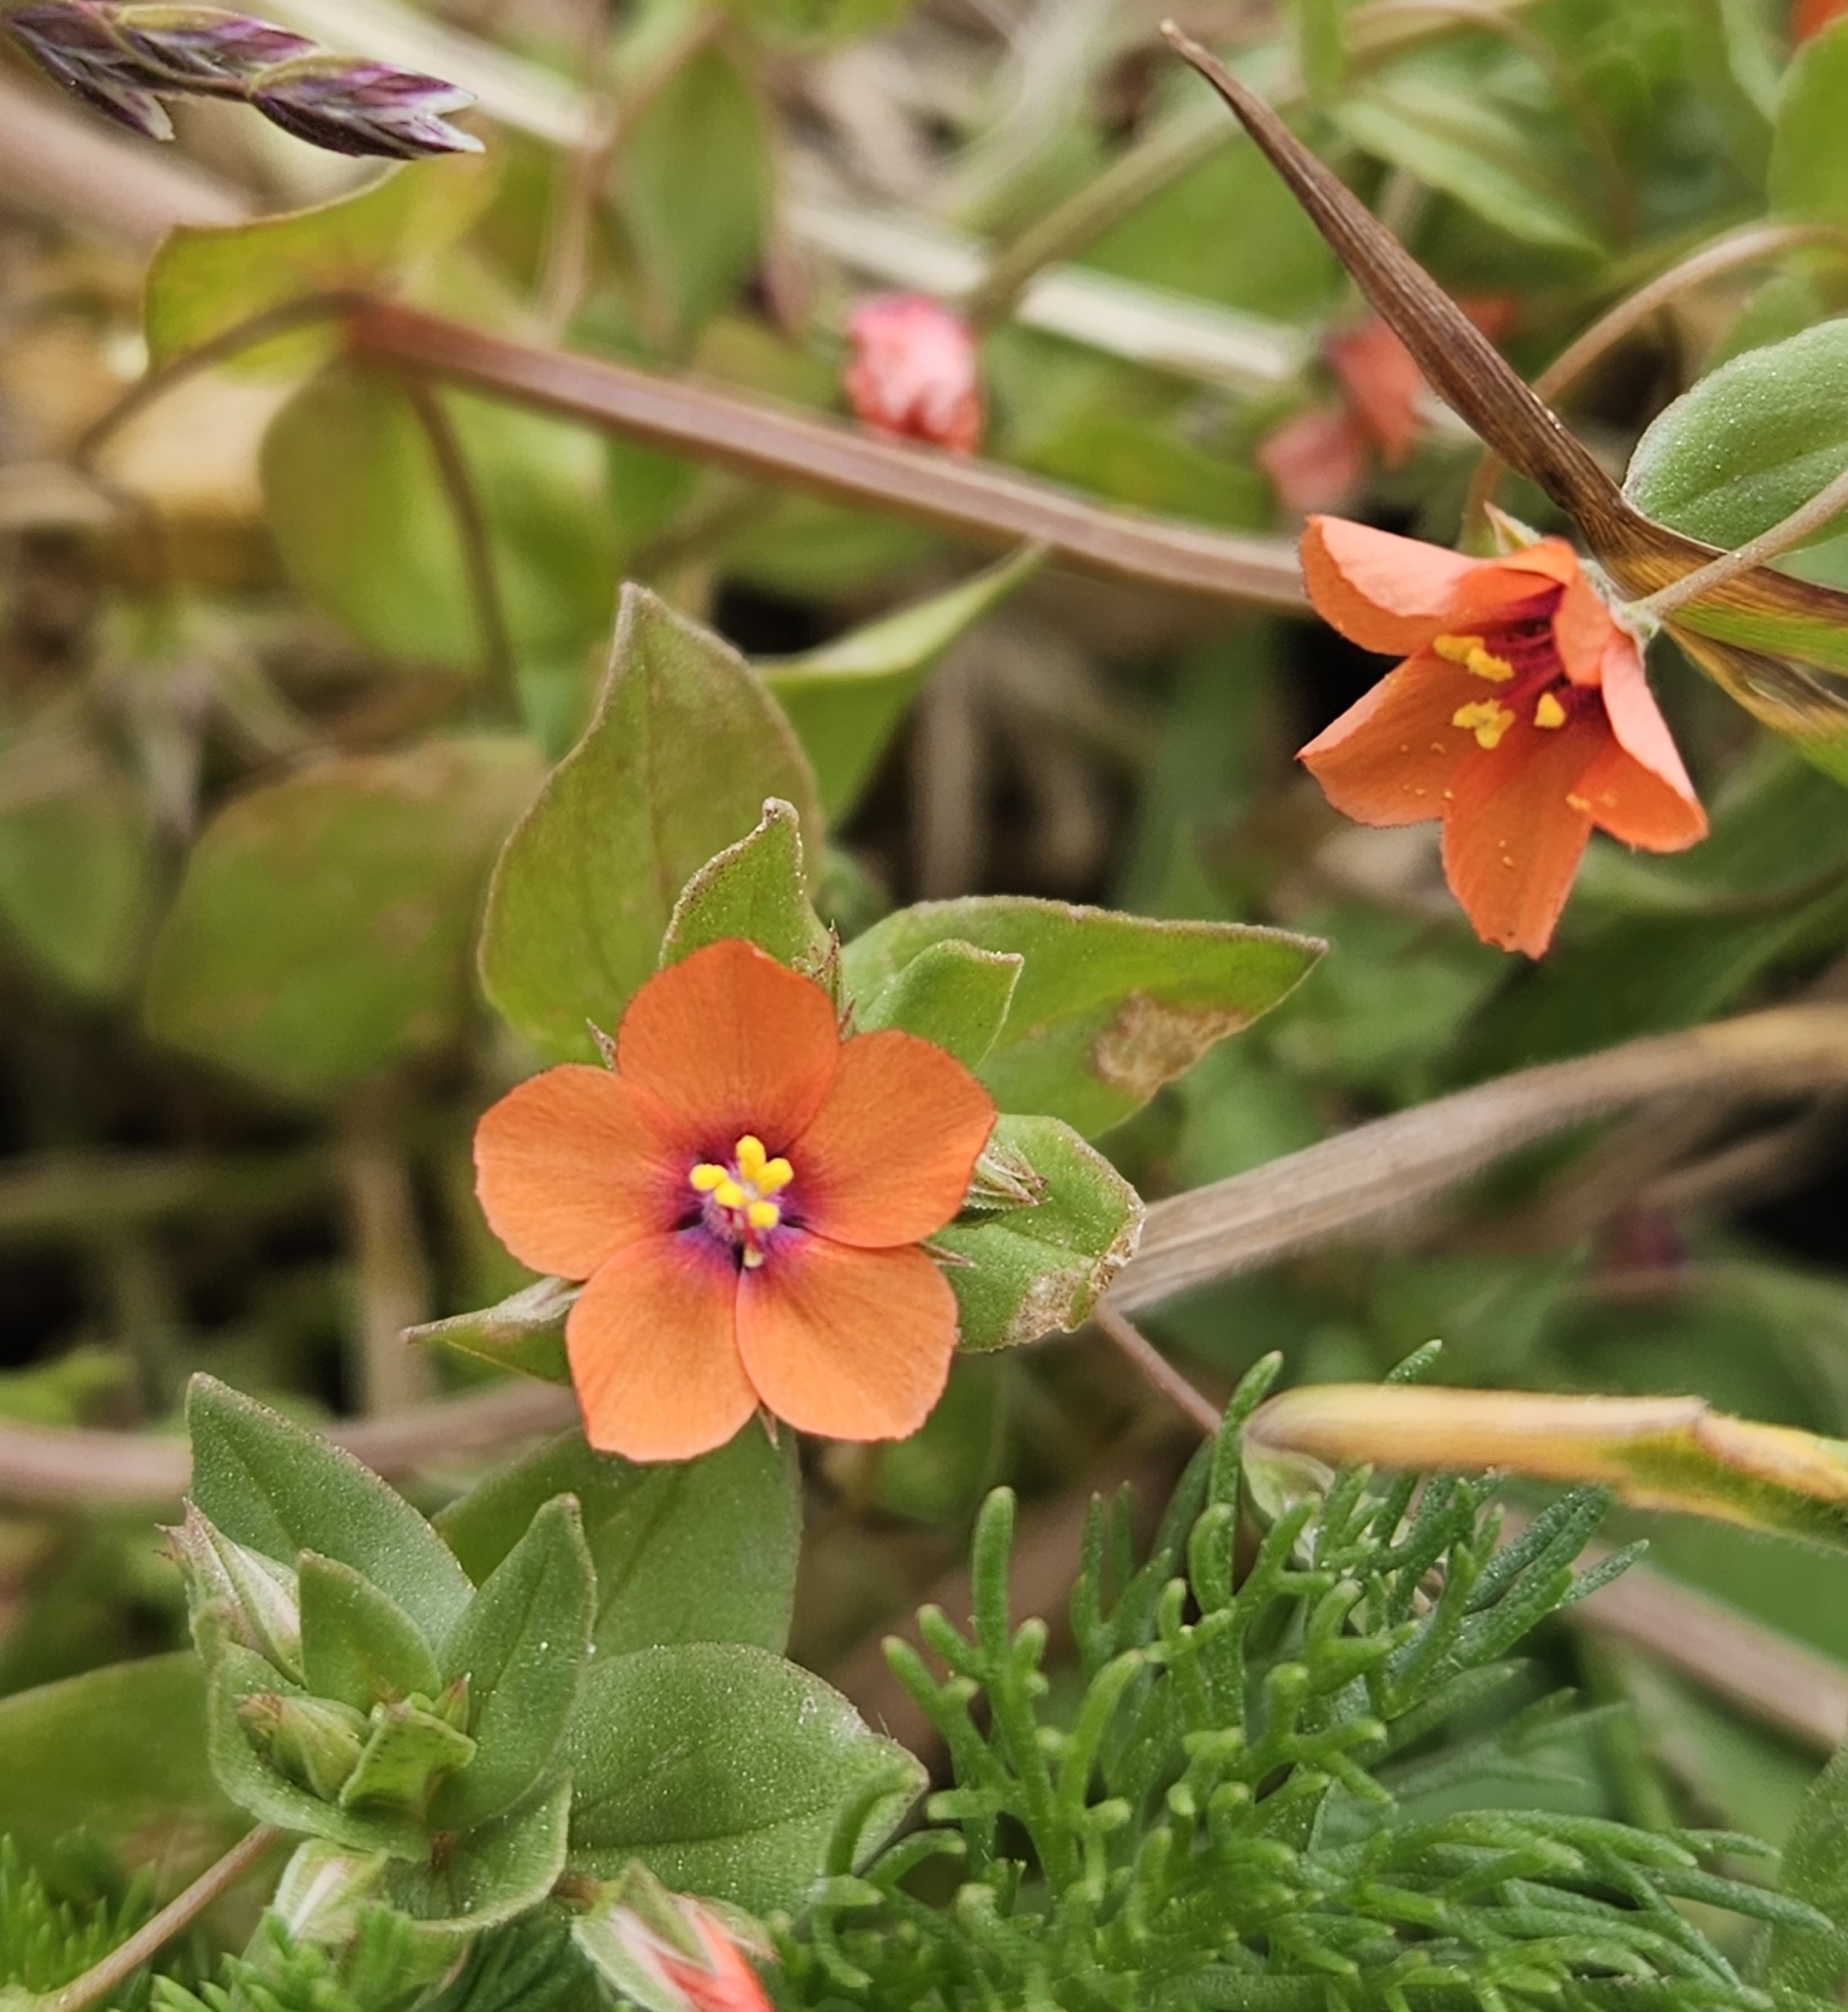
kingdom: Plantae
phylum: Tracheophyta
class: Magnoliopsida
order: Ericales
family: Primulaceae
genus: Lysimachia
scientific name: Lysimachia arvensis
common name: Scarlet pimpernel
